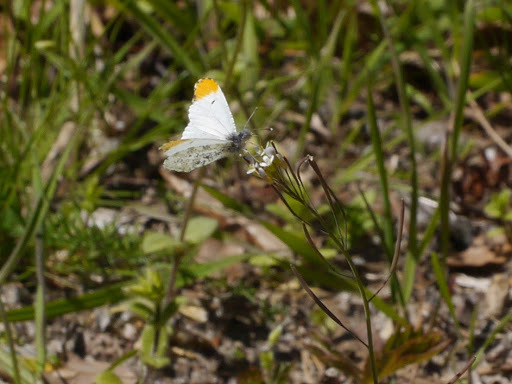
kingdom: Animalia
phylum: Arthropoda
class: Insecta
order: Lepidoptera
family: Pieridae
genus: Anthocharis
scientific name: Anthocharis midea
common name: Falcate orangetip
